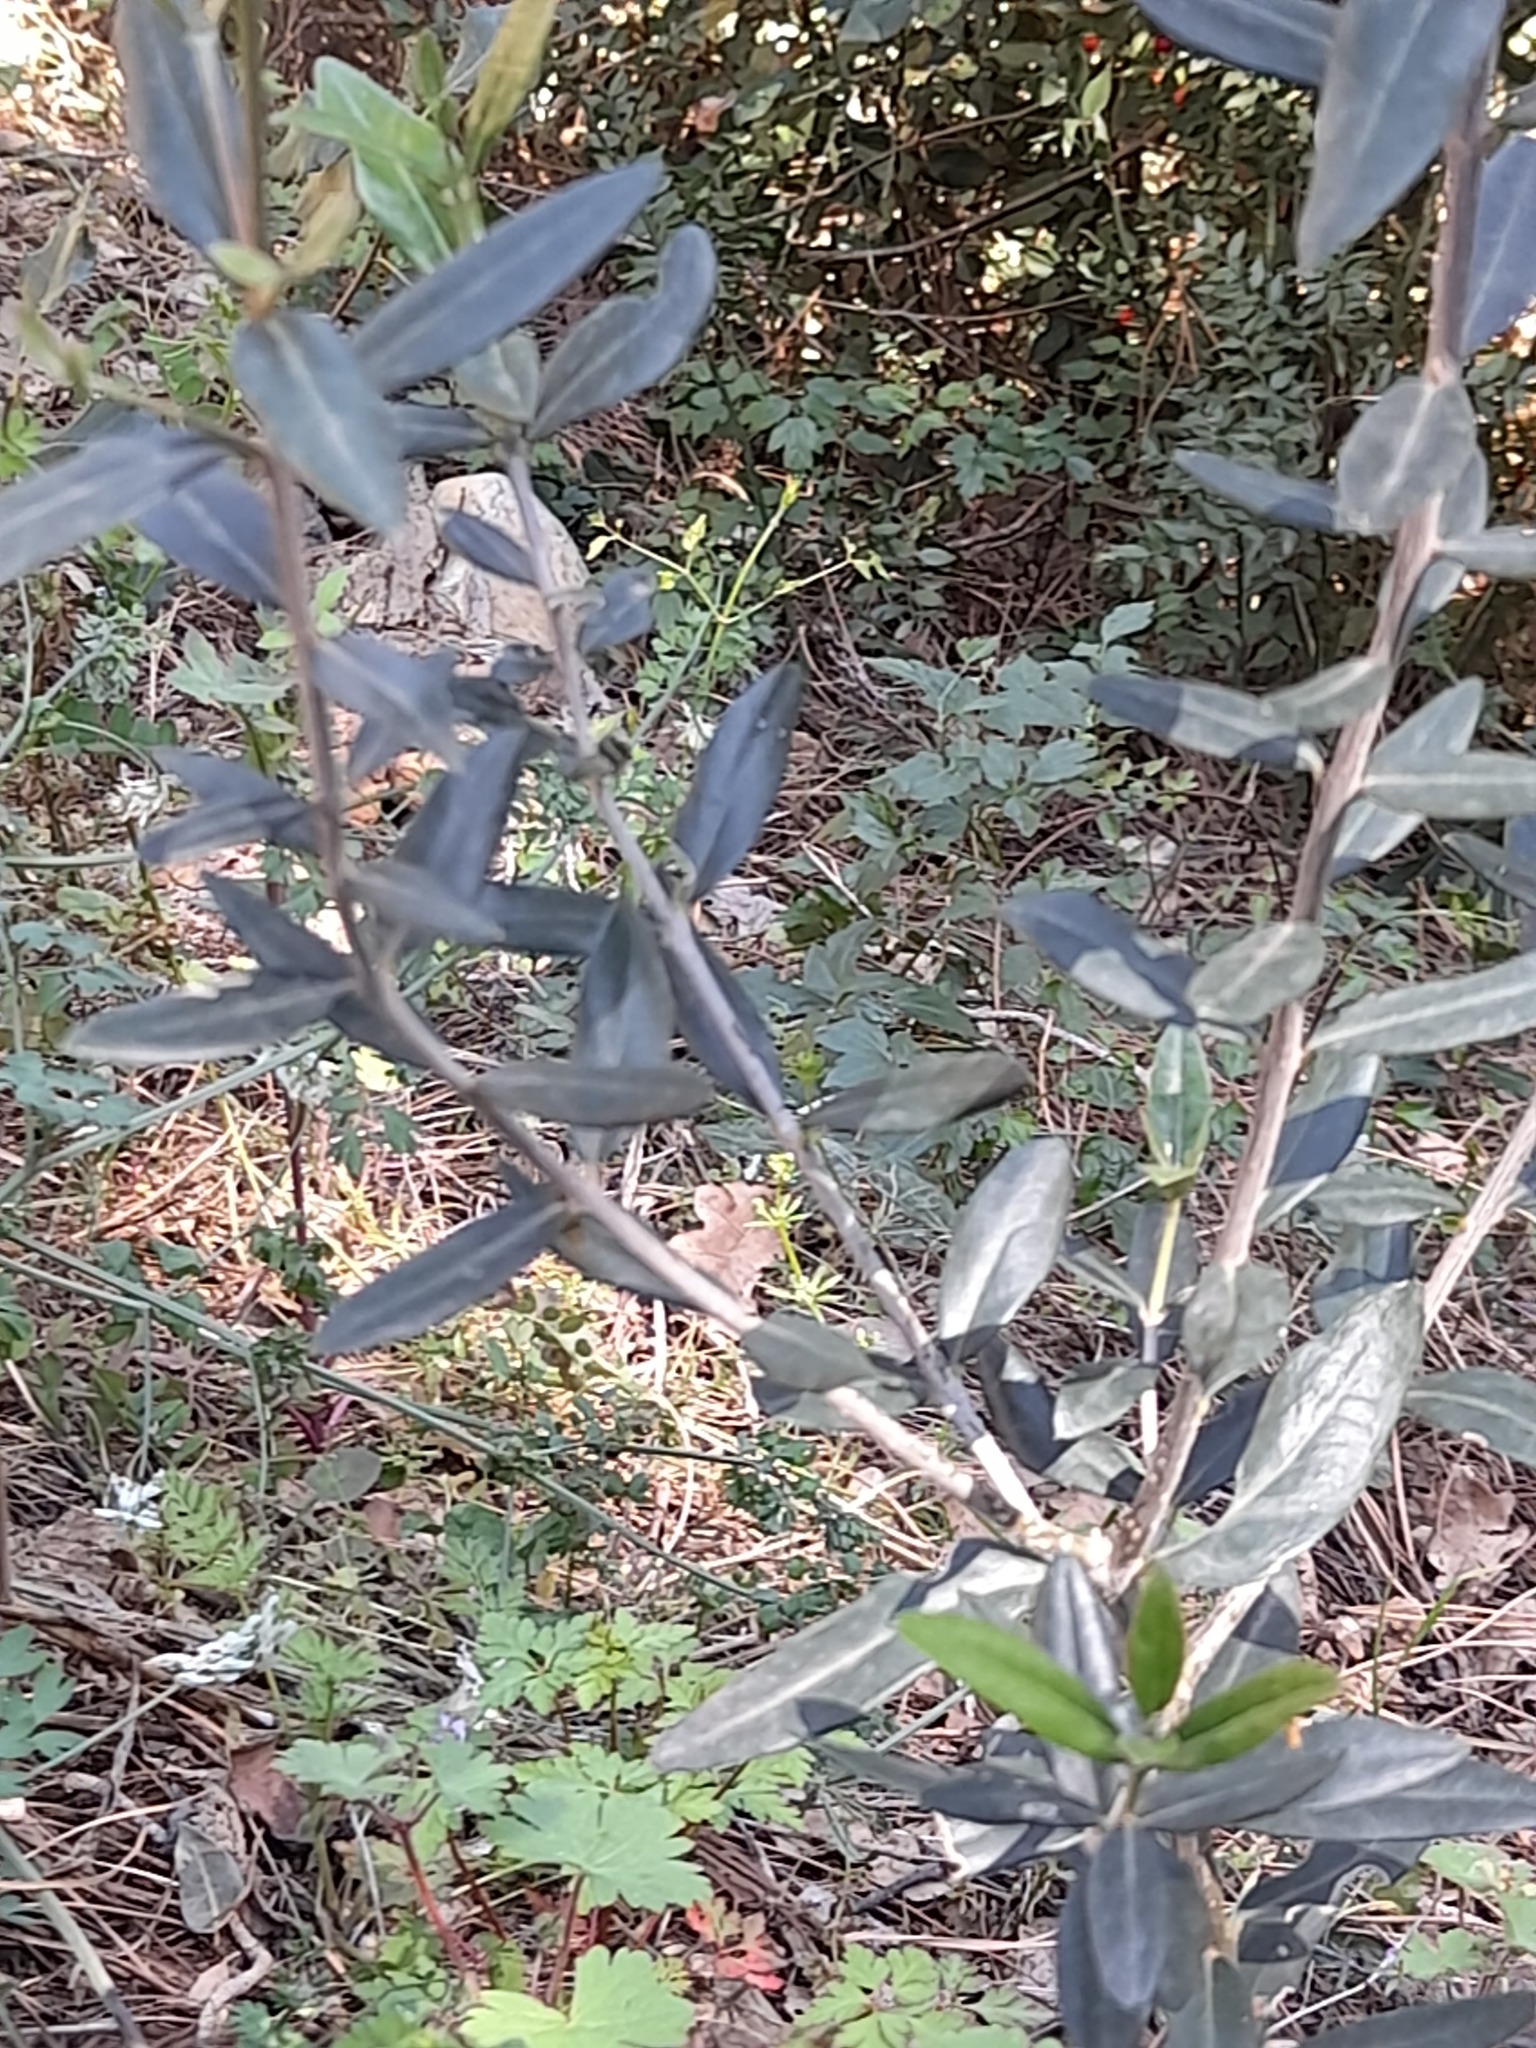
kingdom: Plantae
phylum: Tracheophyta
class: Magnoliopsida
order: Lamiales
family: Oleaceae
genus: Olea
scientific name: Olea europaea
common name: Olive
